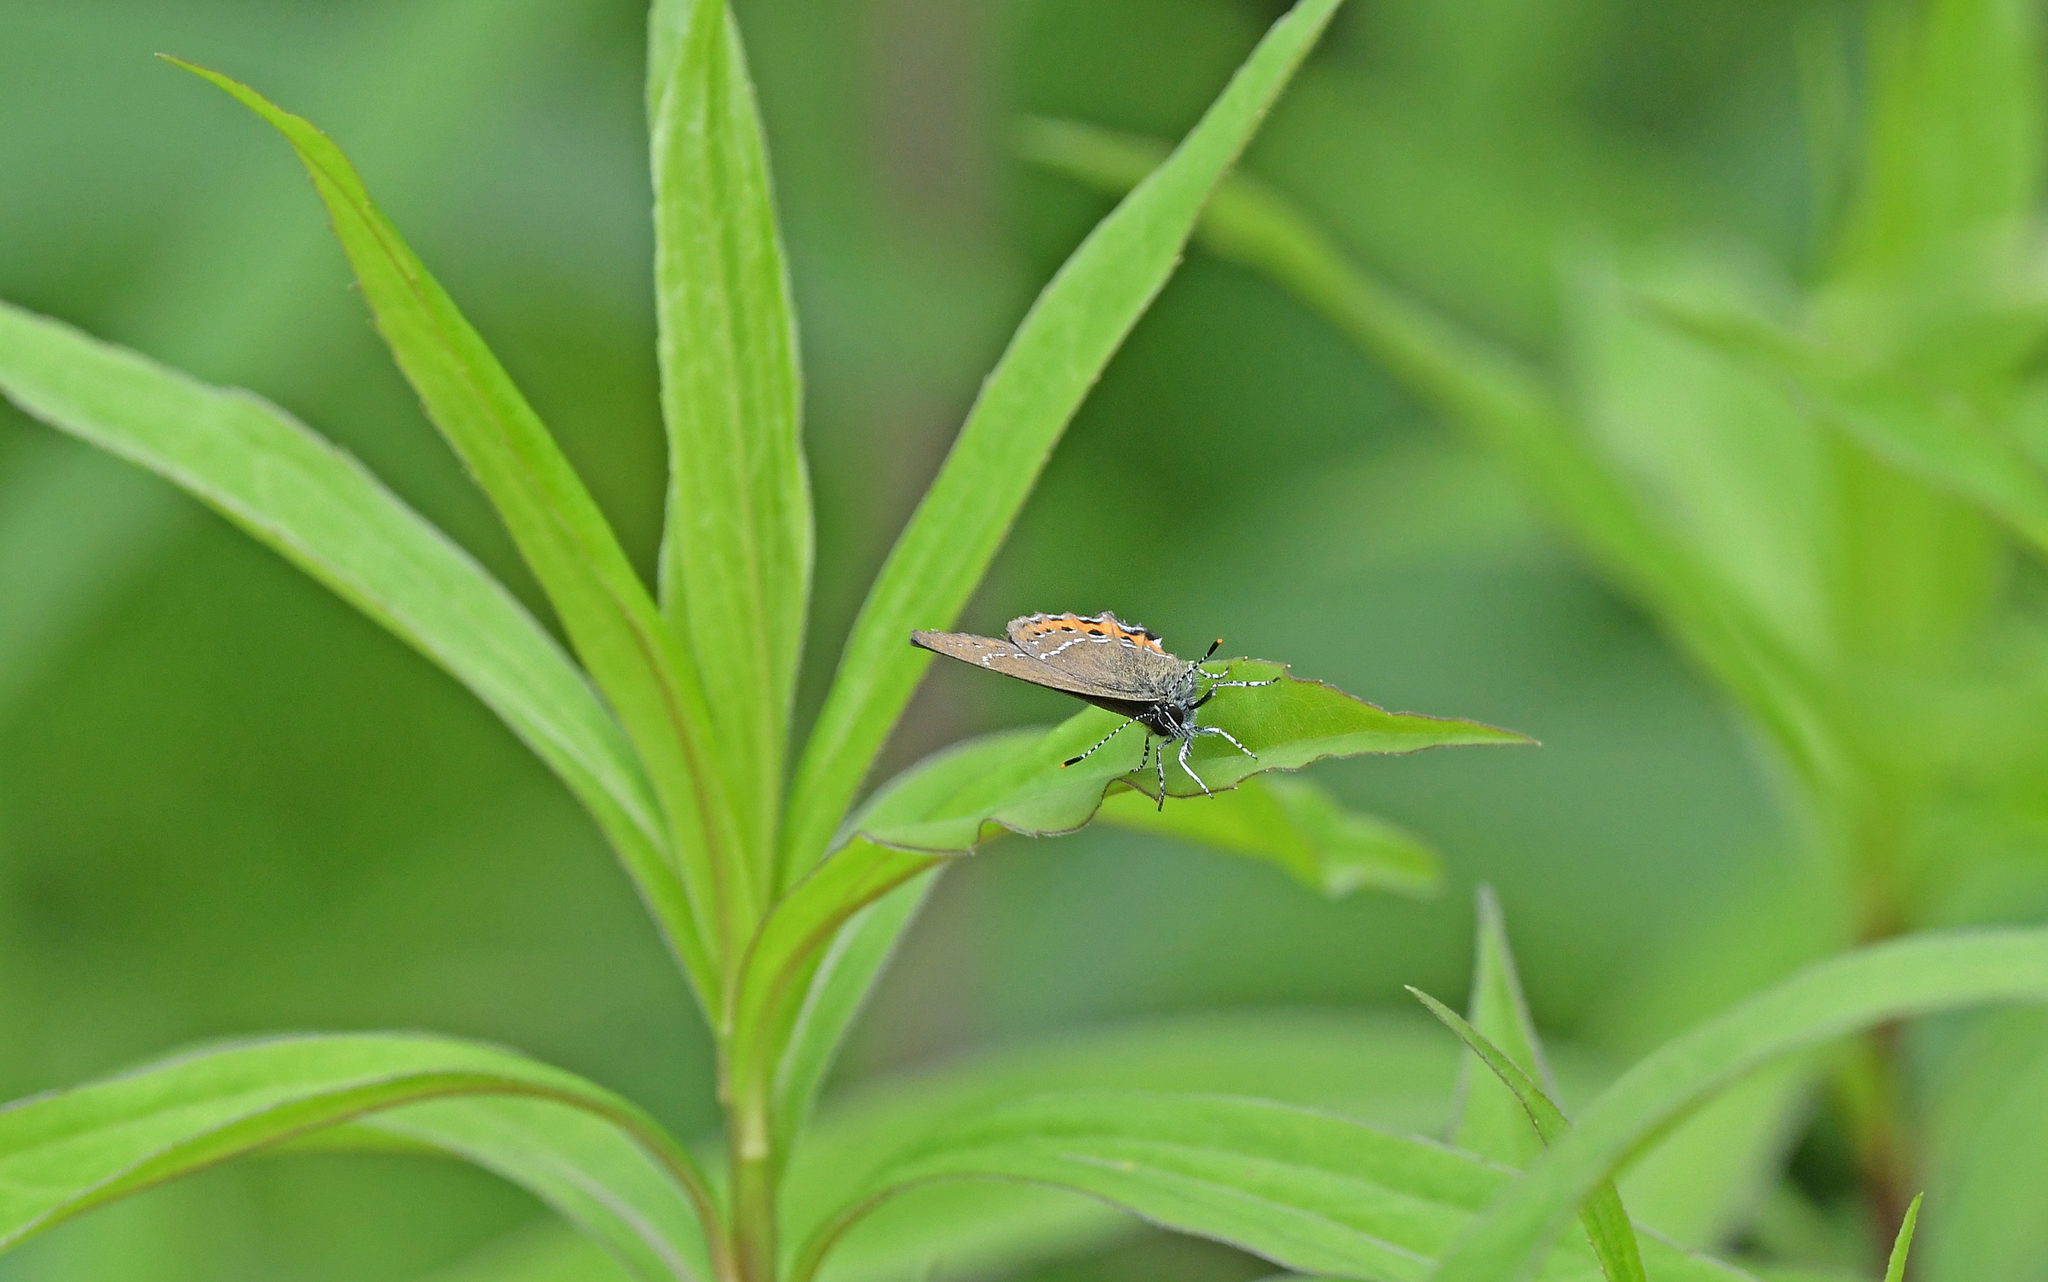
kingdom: Animalia
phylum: Arthropoda
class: Insecta
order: Lepidoptera
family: Lycaenidae
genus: Fixsenia
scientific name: Fixsenia pruni
